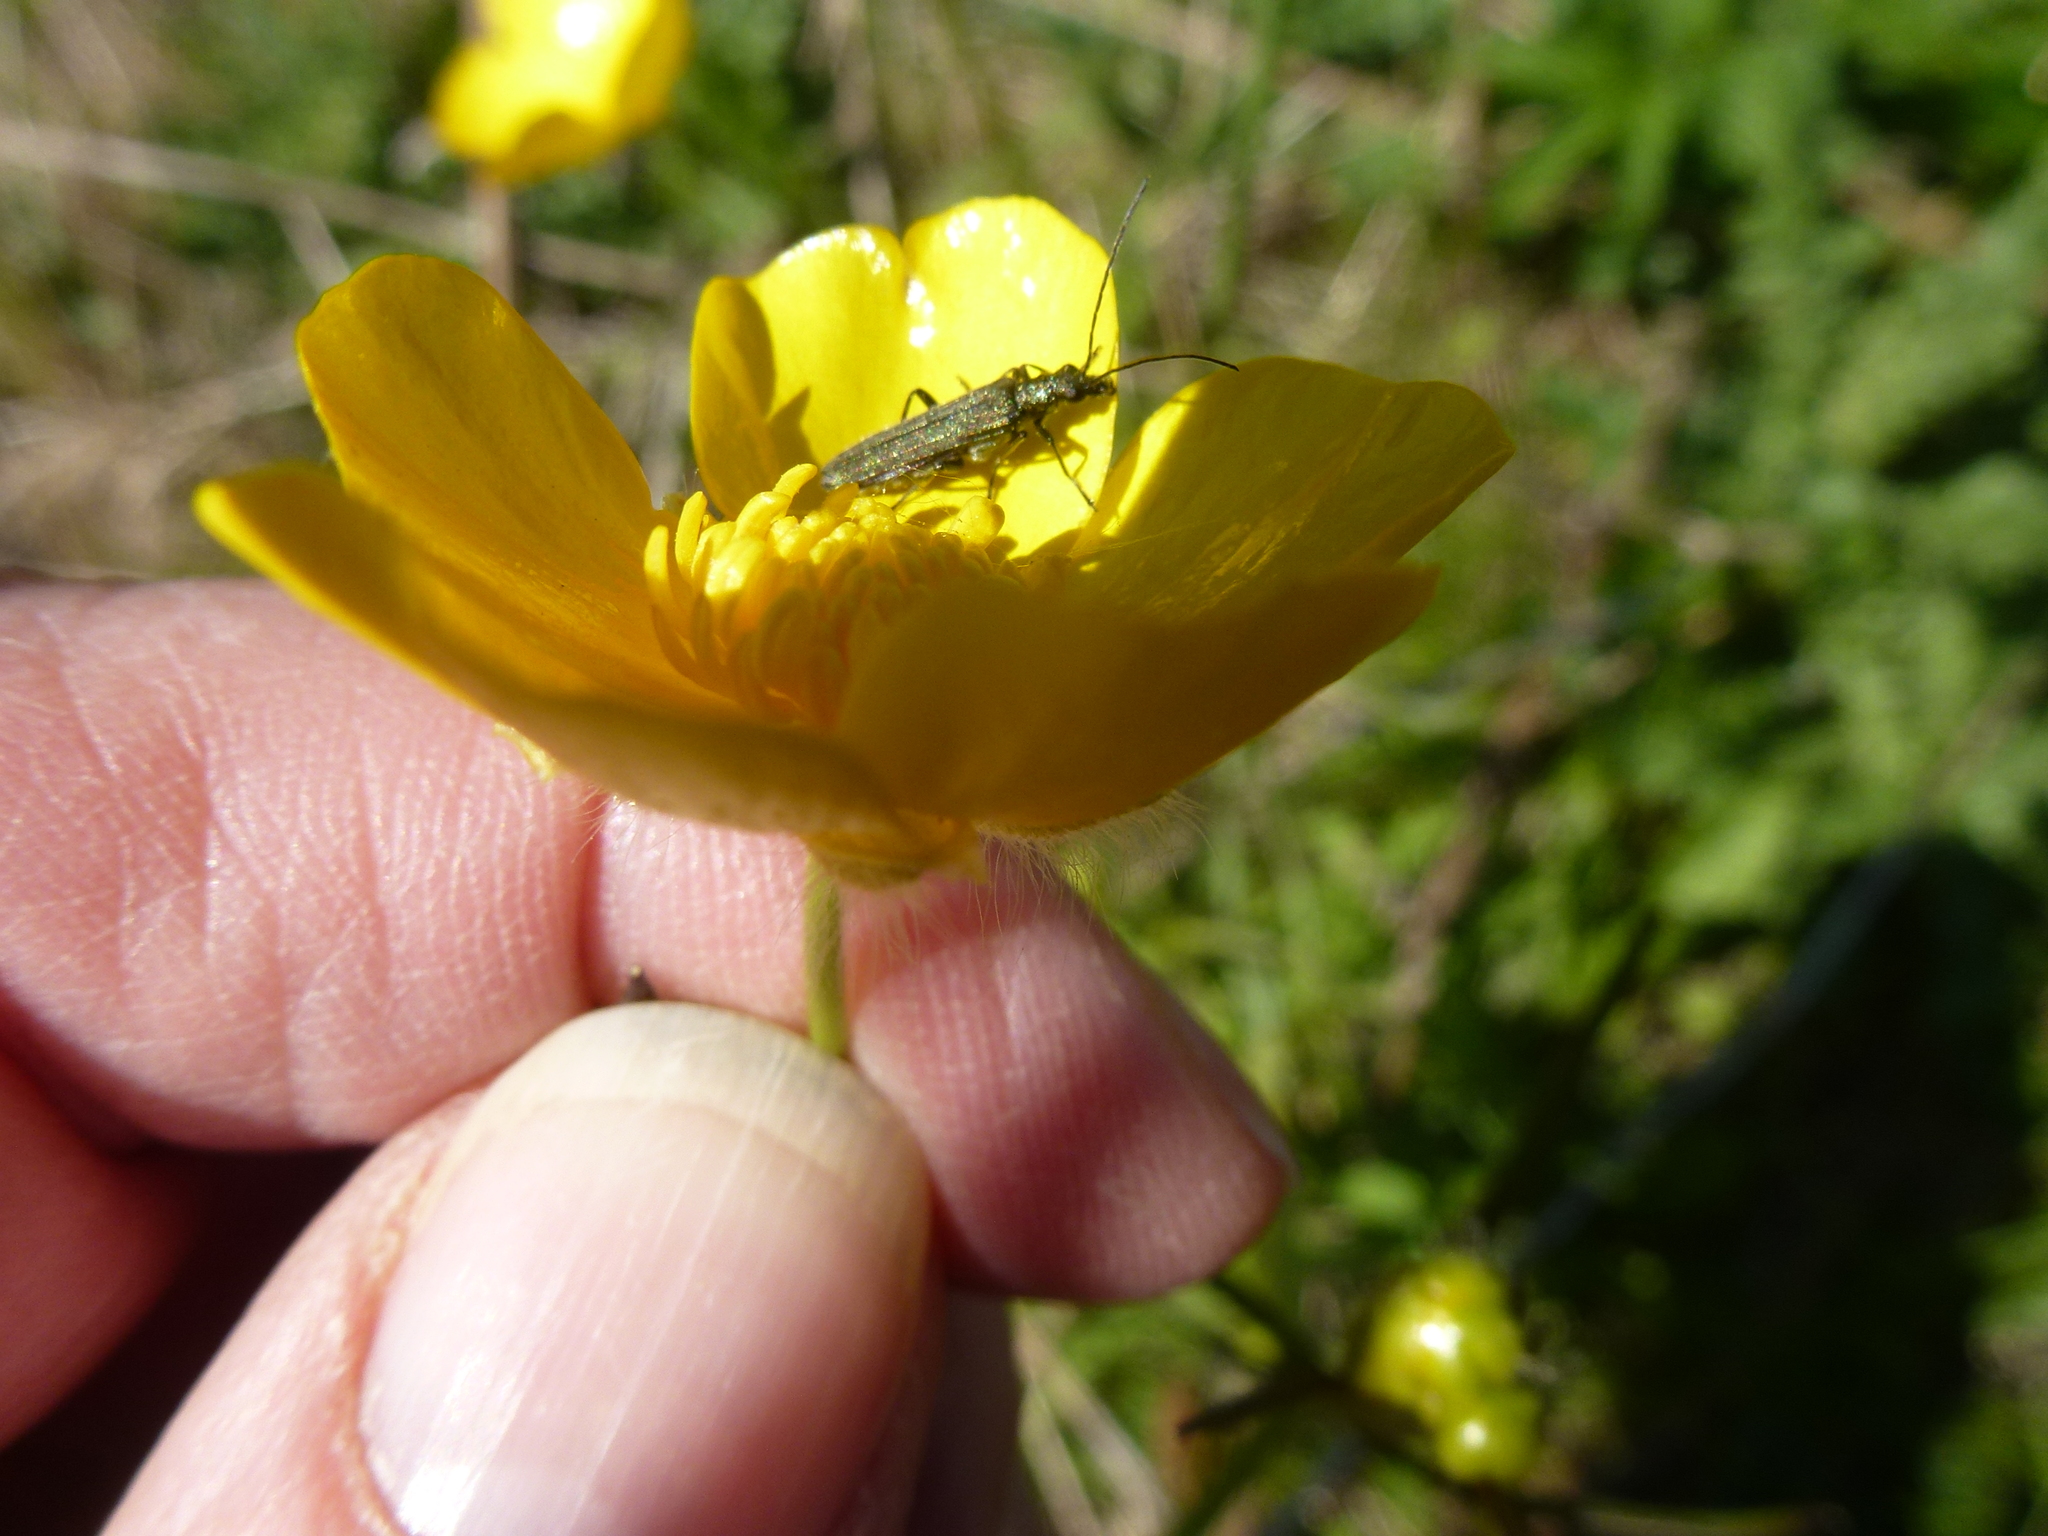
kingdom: Animalia
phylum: Arthropoda
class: Insecta
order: Coleoptera
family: Oedemeridae
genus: Oedemera
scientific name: Oedemera lurida
